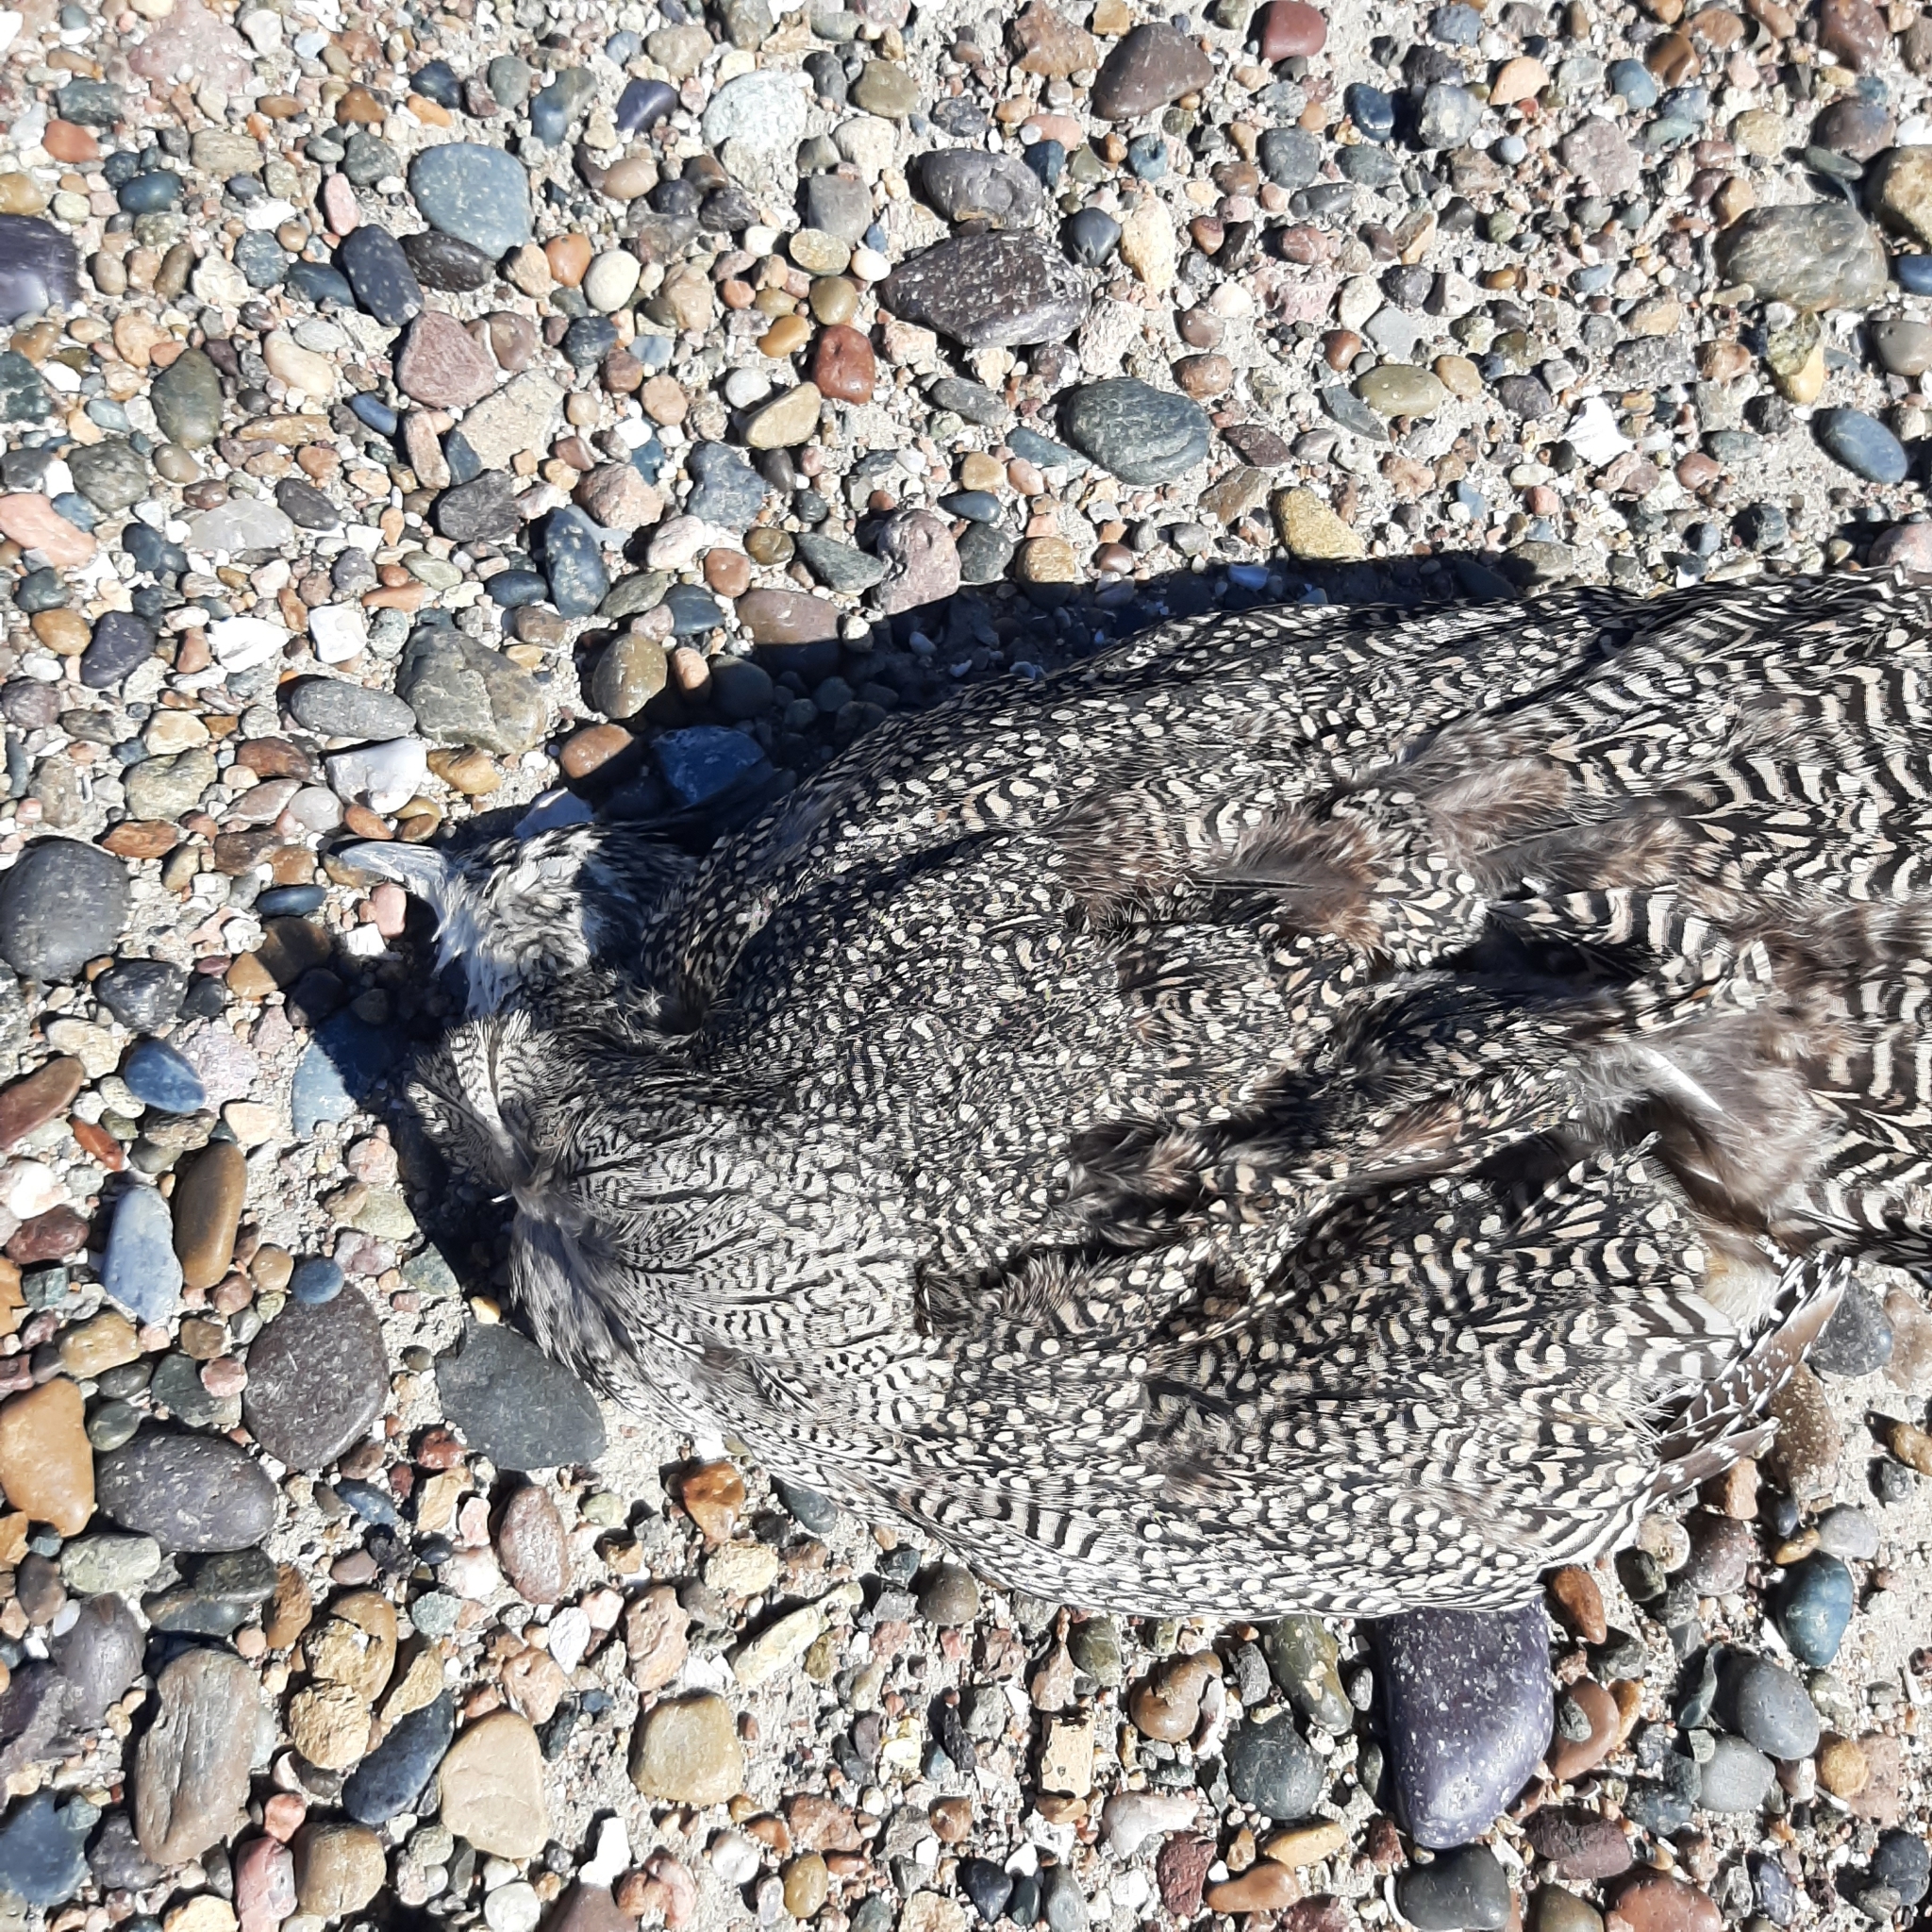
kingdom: Animalia
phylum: Chordata
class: Aves
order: Tinamiformes
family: Tinamidae
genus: Eudromia
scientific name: Eudromia elegans
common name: Elegant crested tinamou
